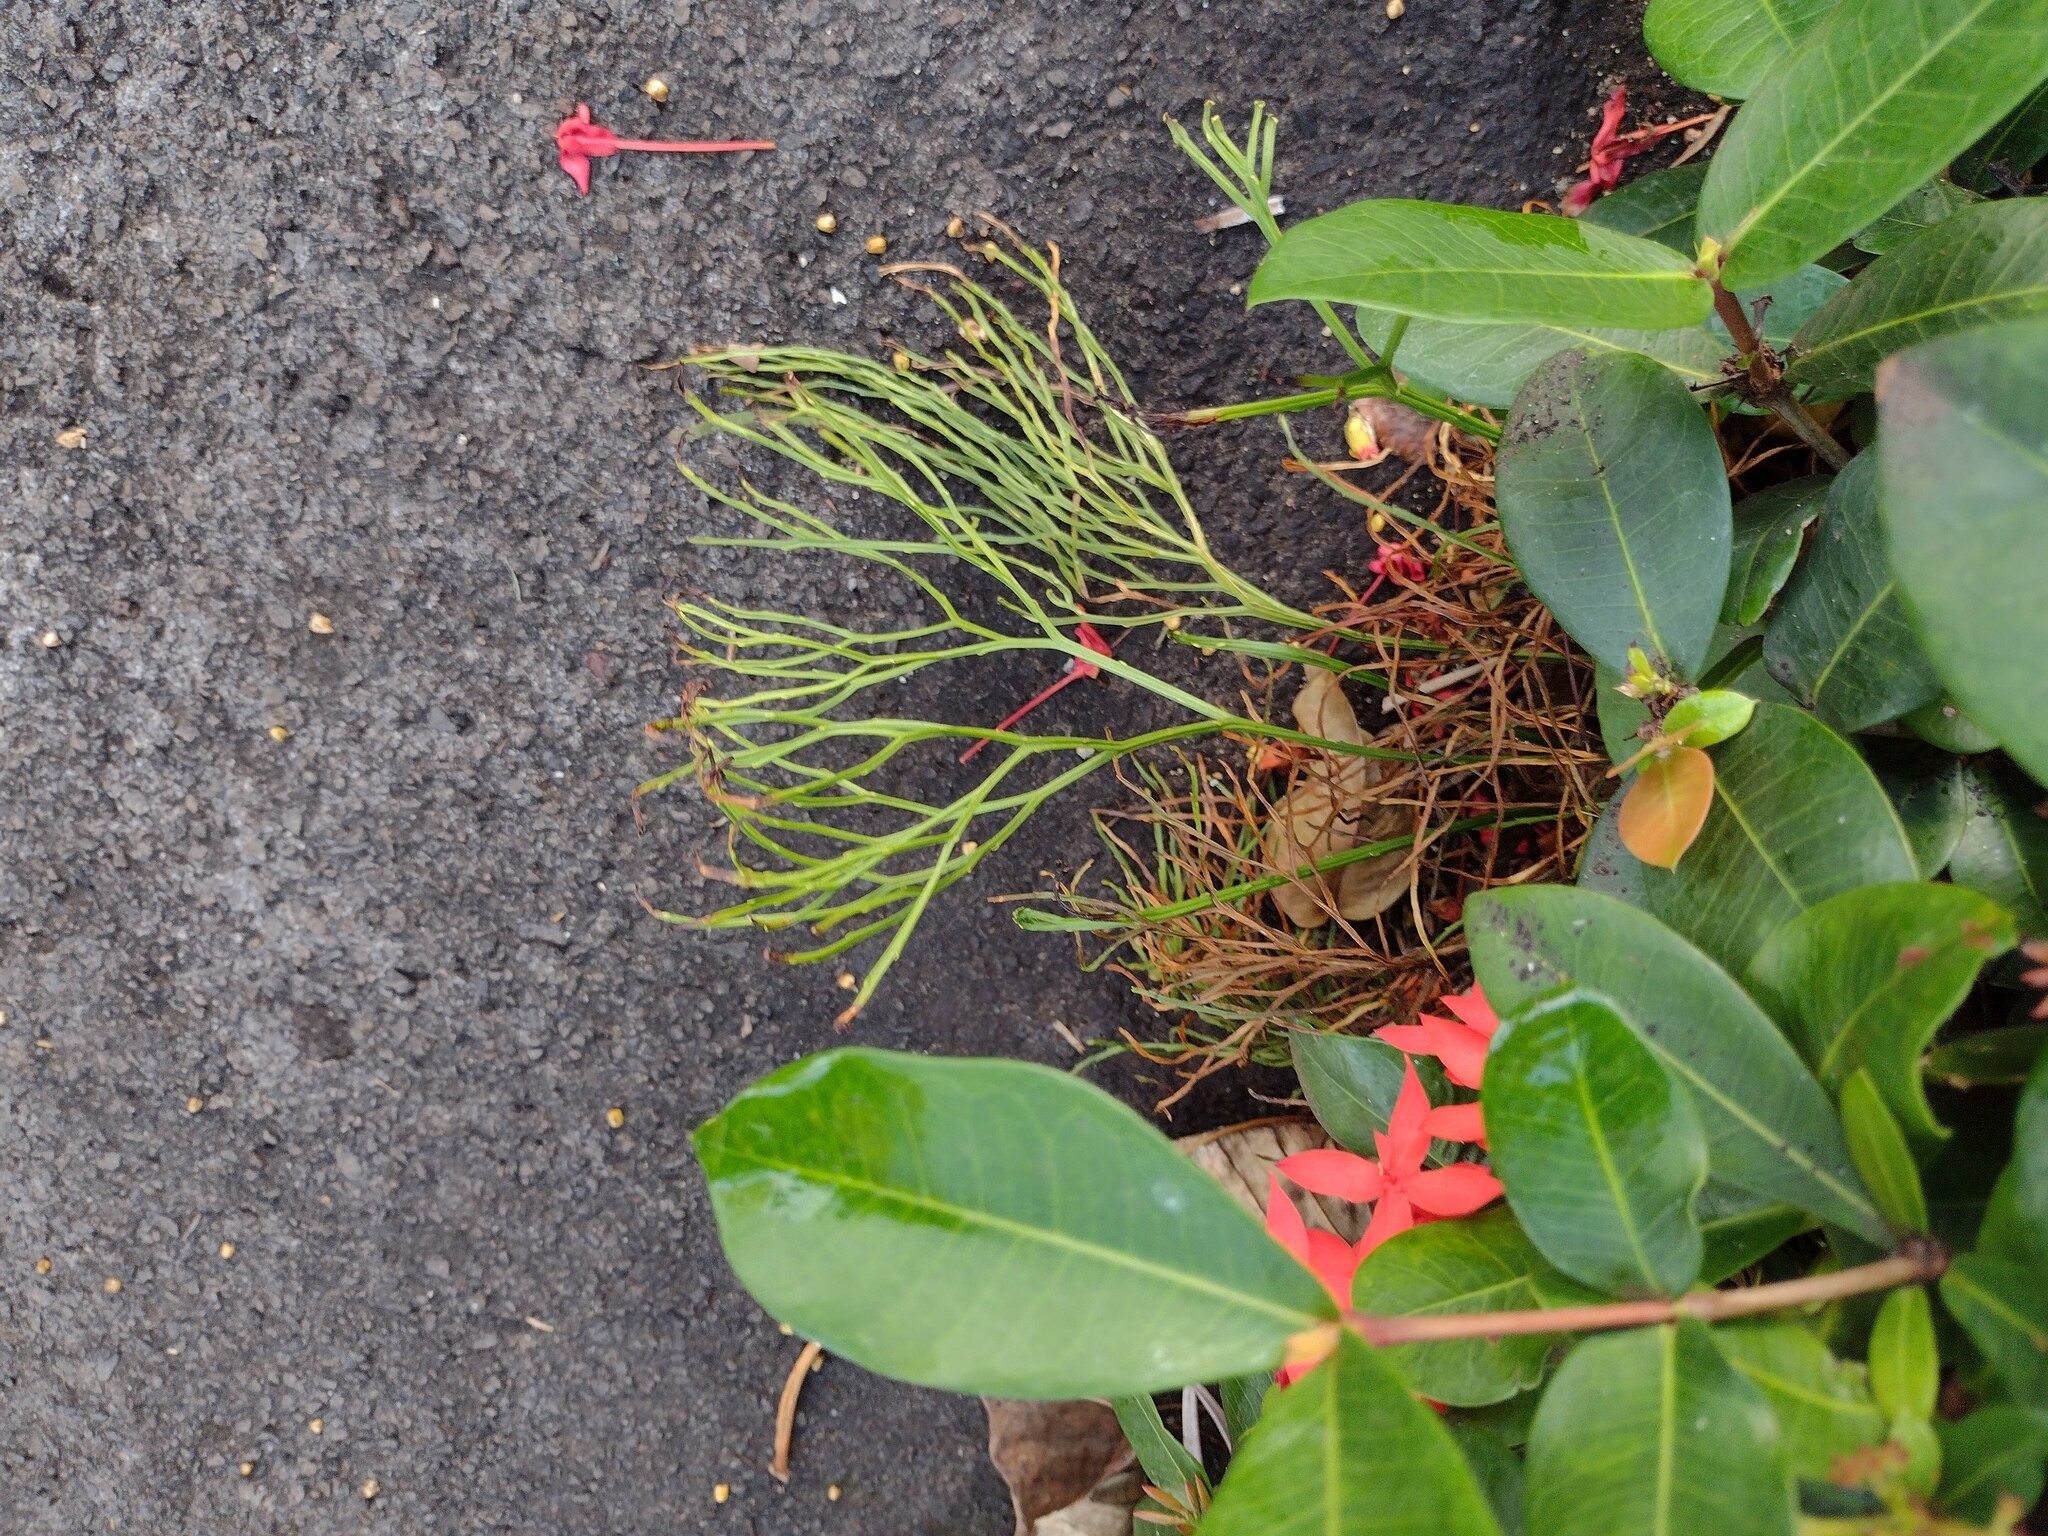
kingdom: Plantae
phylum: Tracheophyta
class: Polypodiopsida
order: Psilotales
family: Psilotaceae
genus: Psilotum
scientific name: Psilotum nudum
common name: Skeleton fork fern
